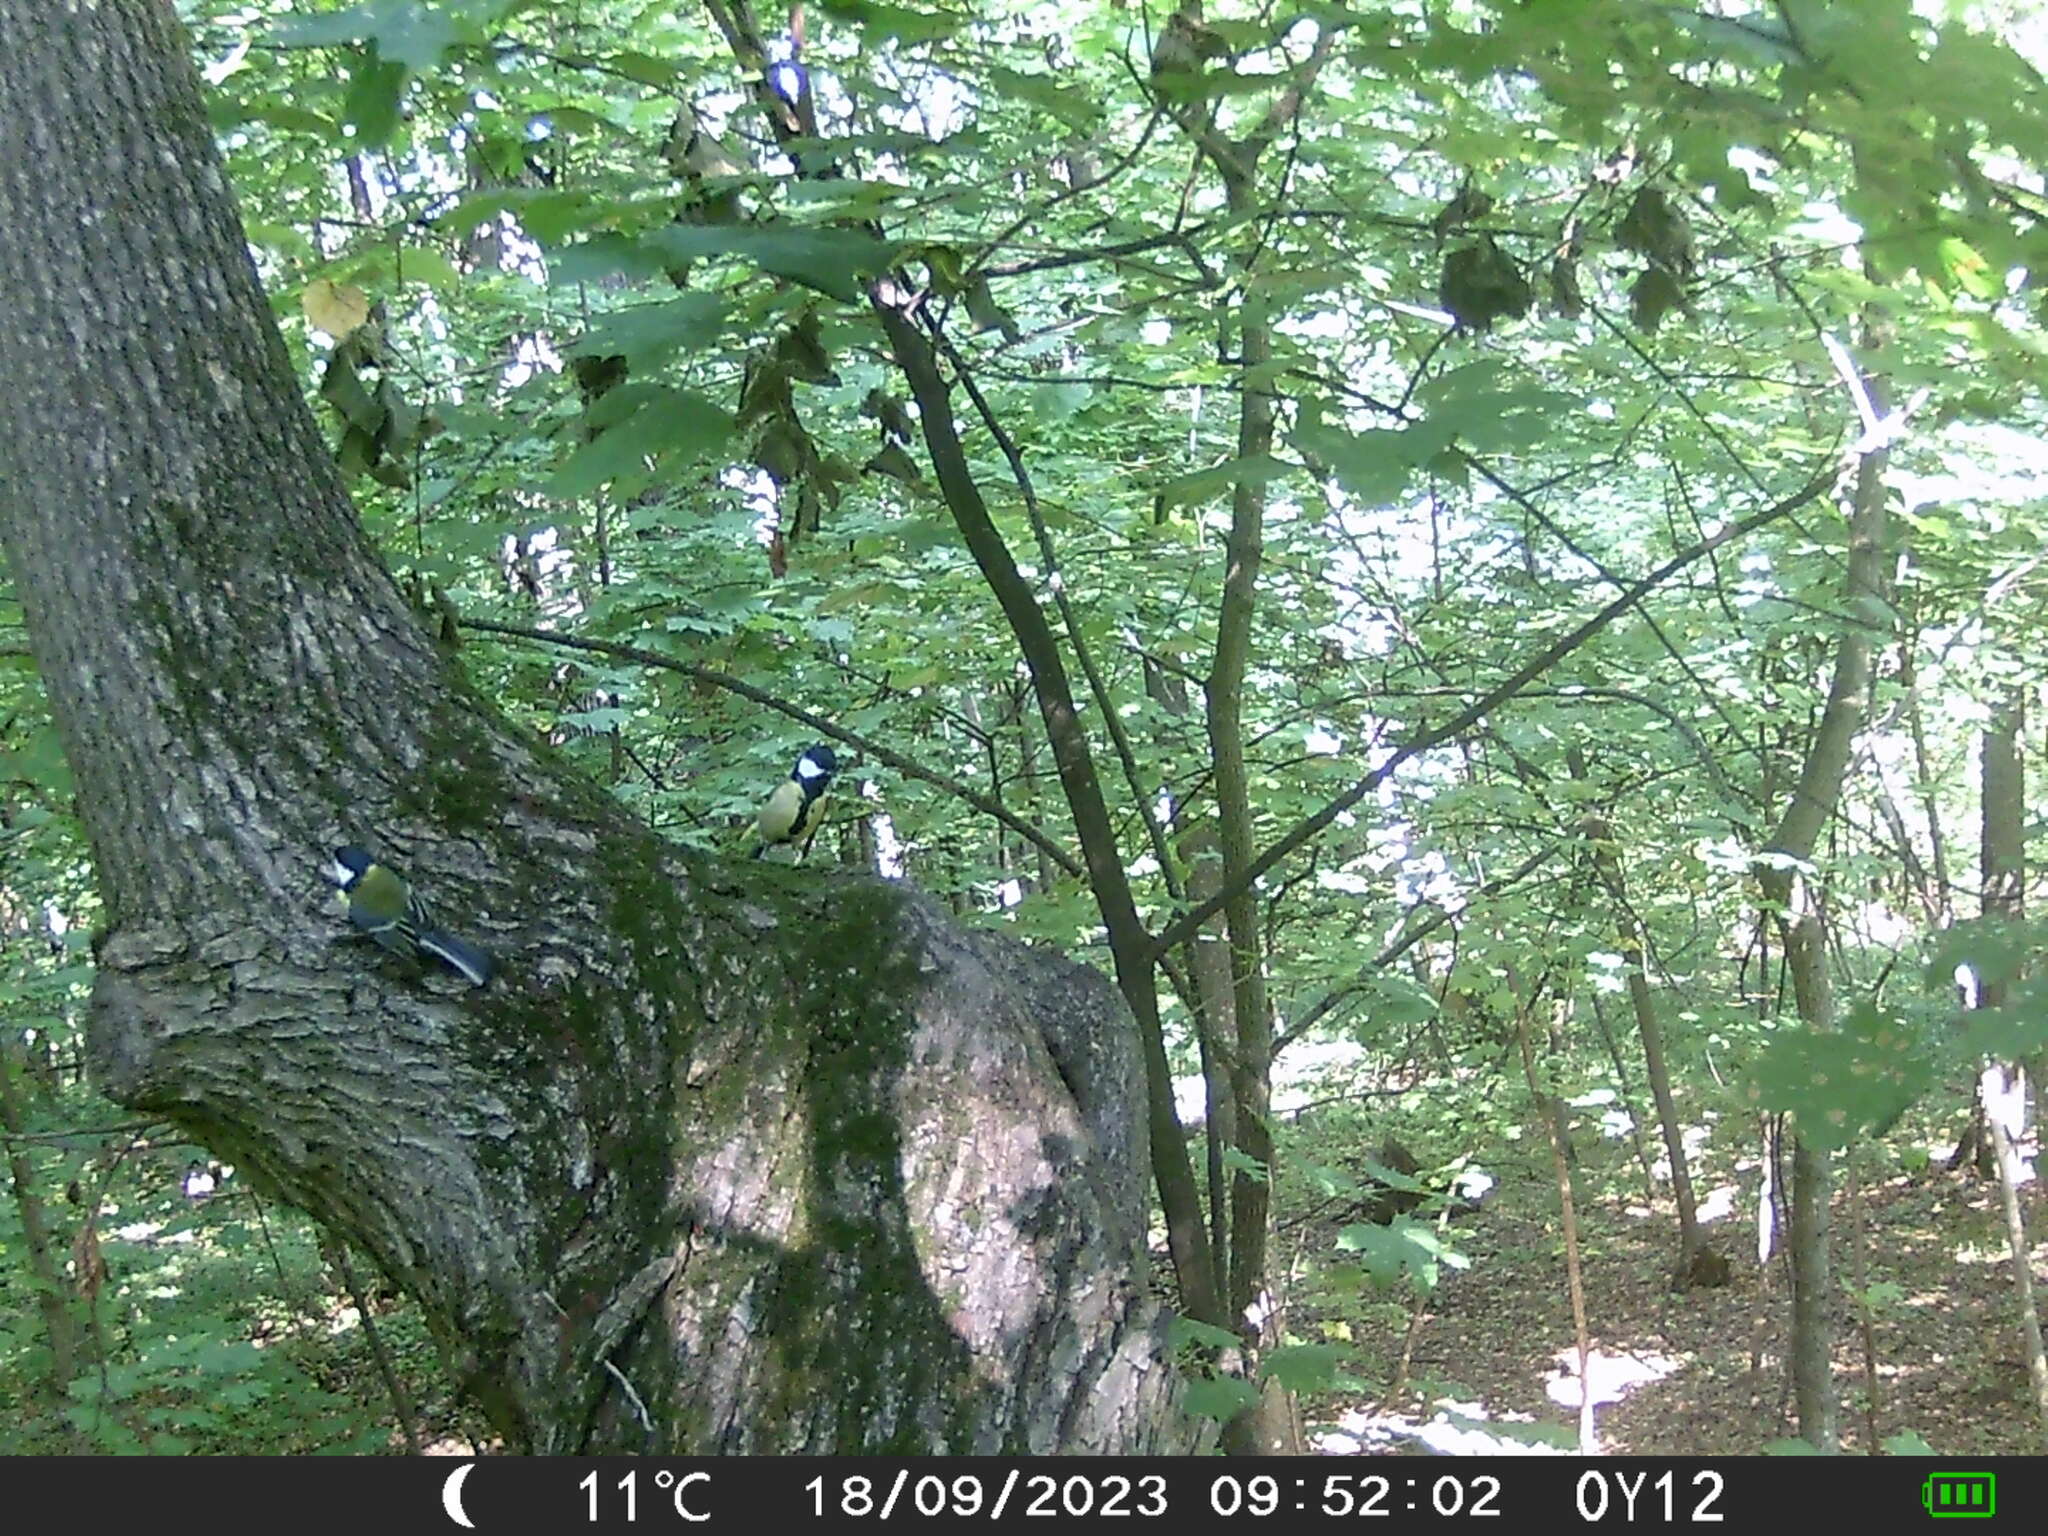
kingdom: Animalia
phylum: Chordata
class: Aves
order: Passeriformes
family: Paridae
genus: Parus
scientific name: Parus major
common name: Great tit
